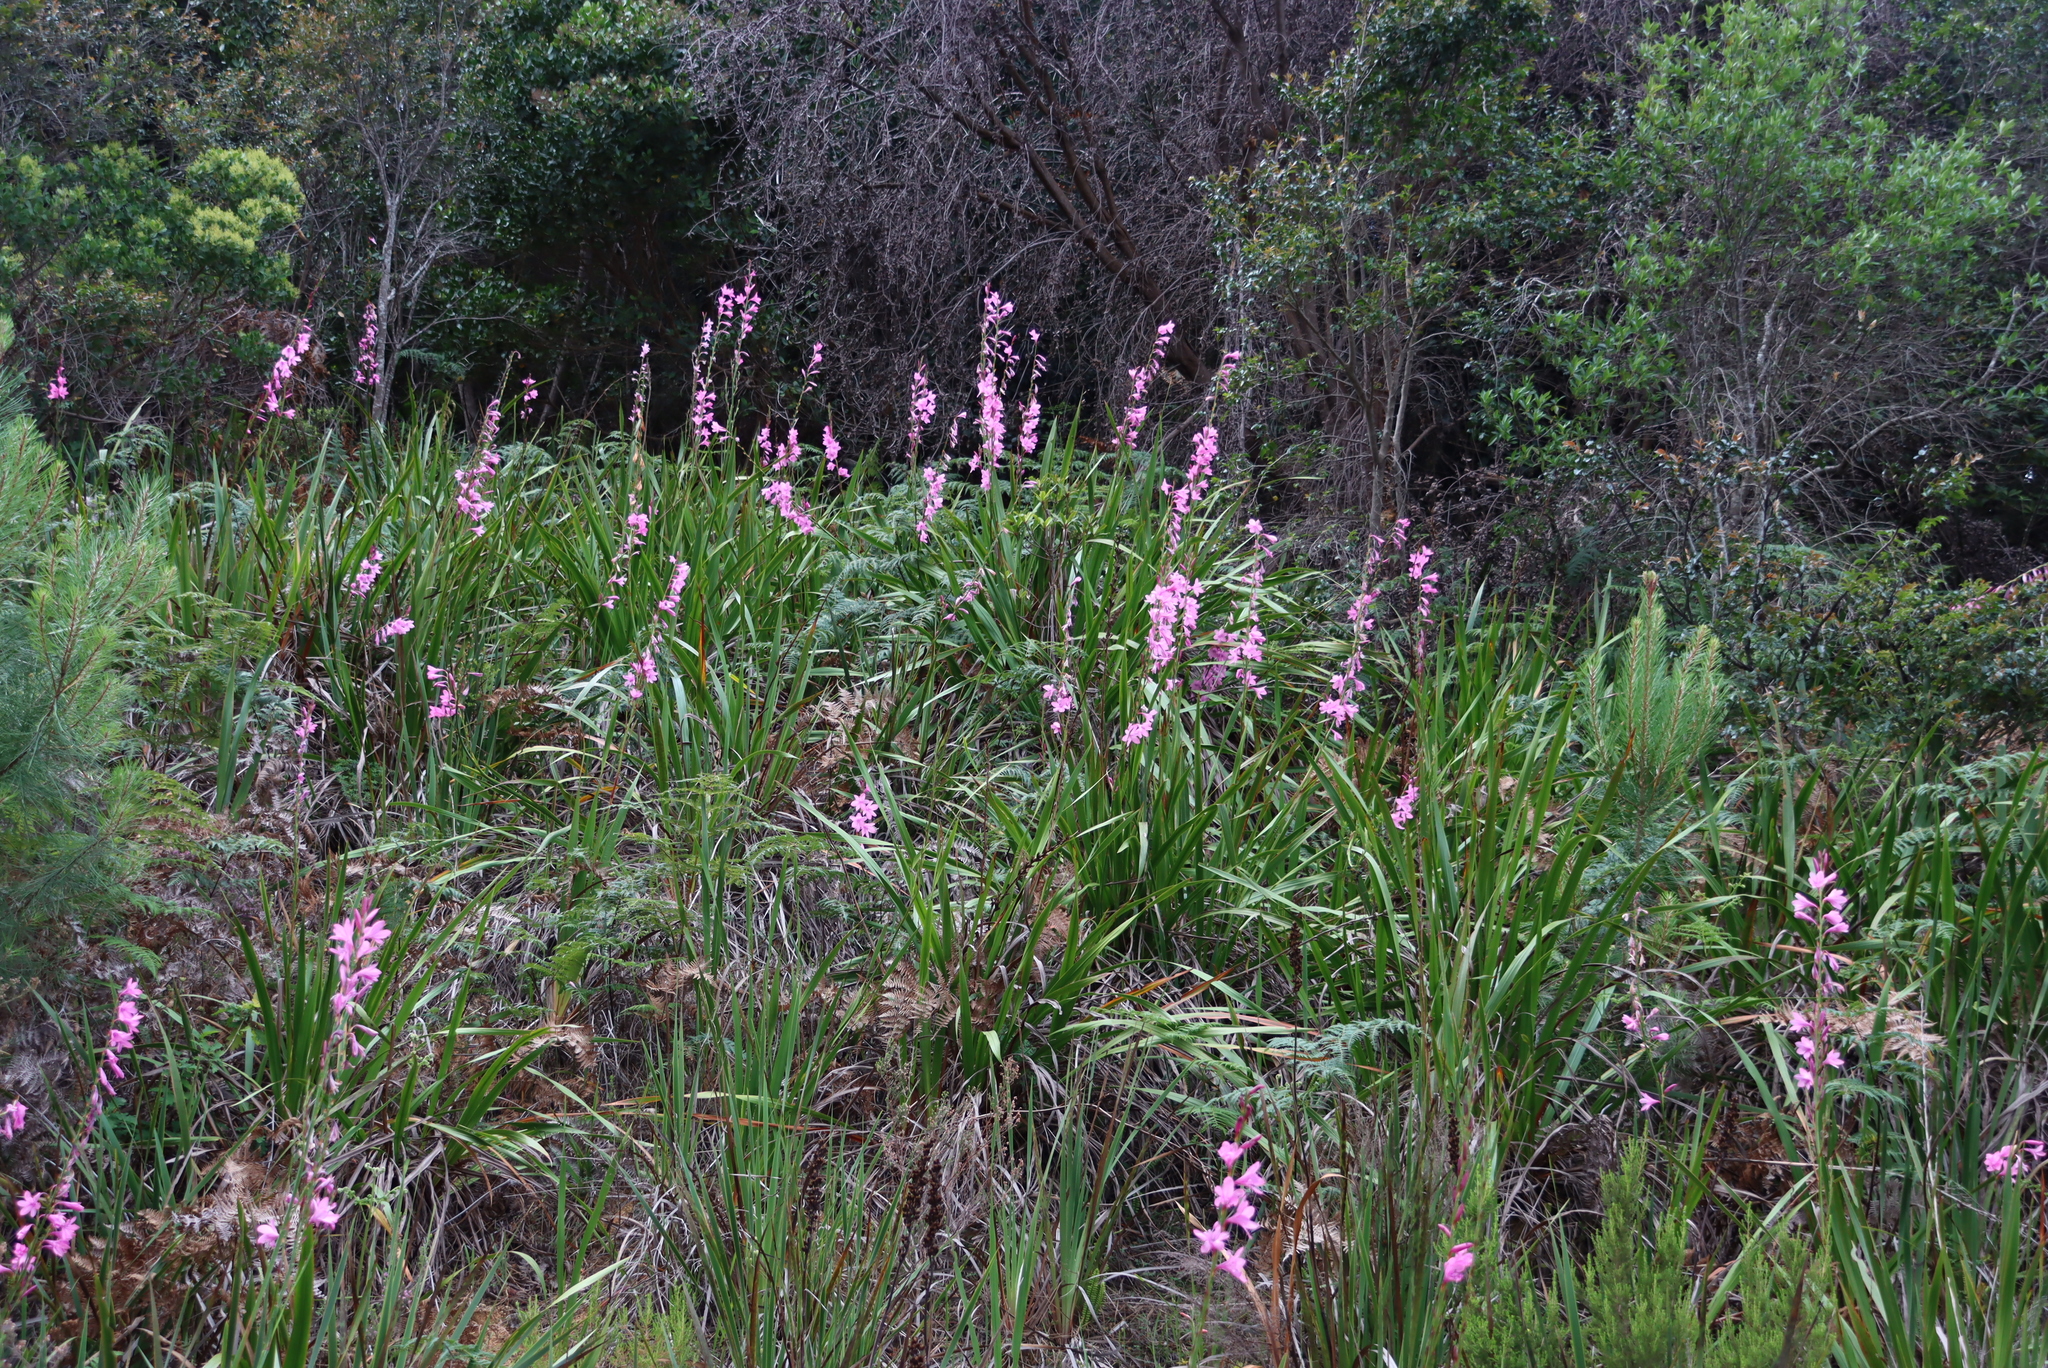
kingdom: Plantae
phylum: Tracheophyta
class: Liliopsida
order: Asparagales
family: Iridaceae
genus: Watsonia
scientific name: Watsonia borbonica
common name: Bugle-lily
